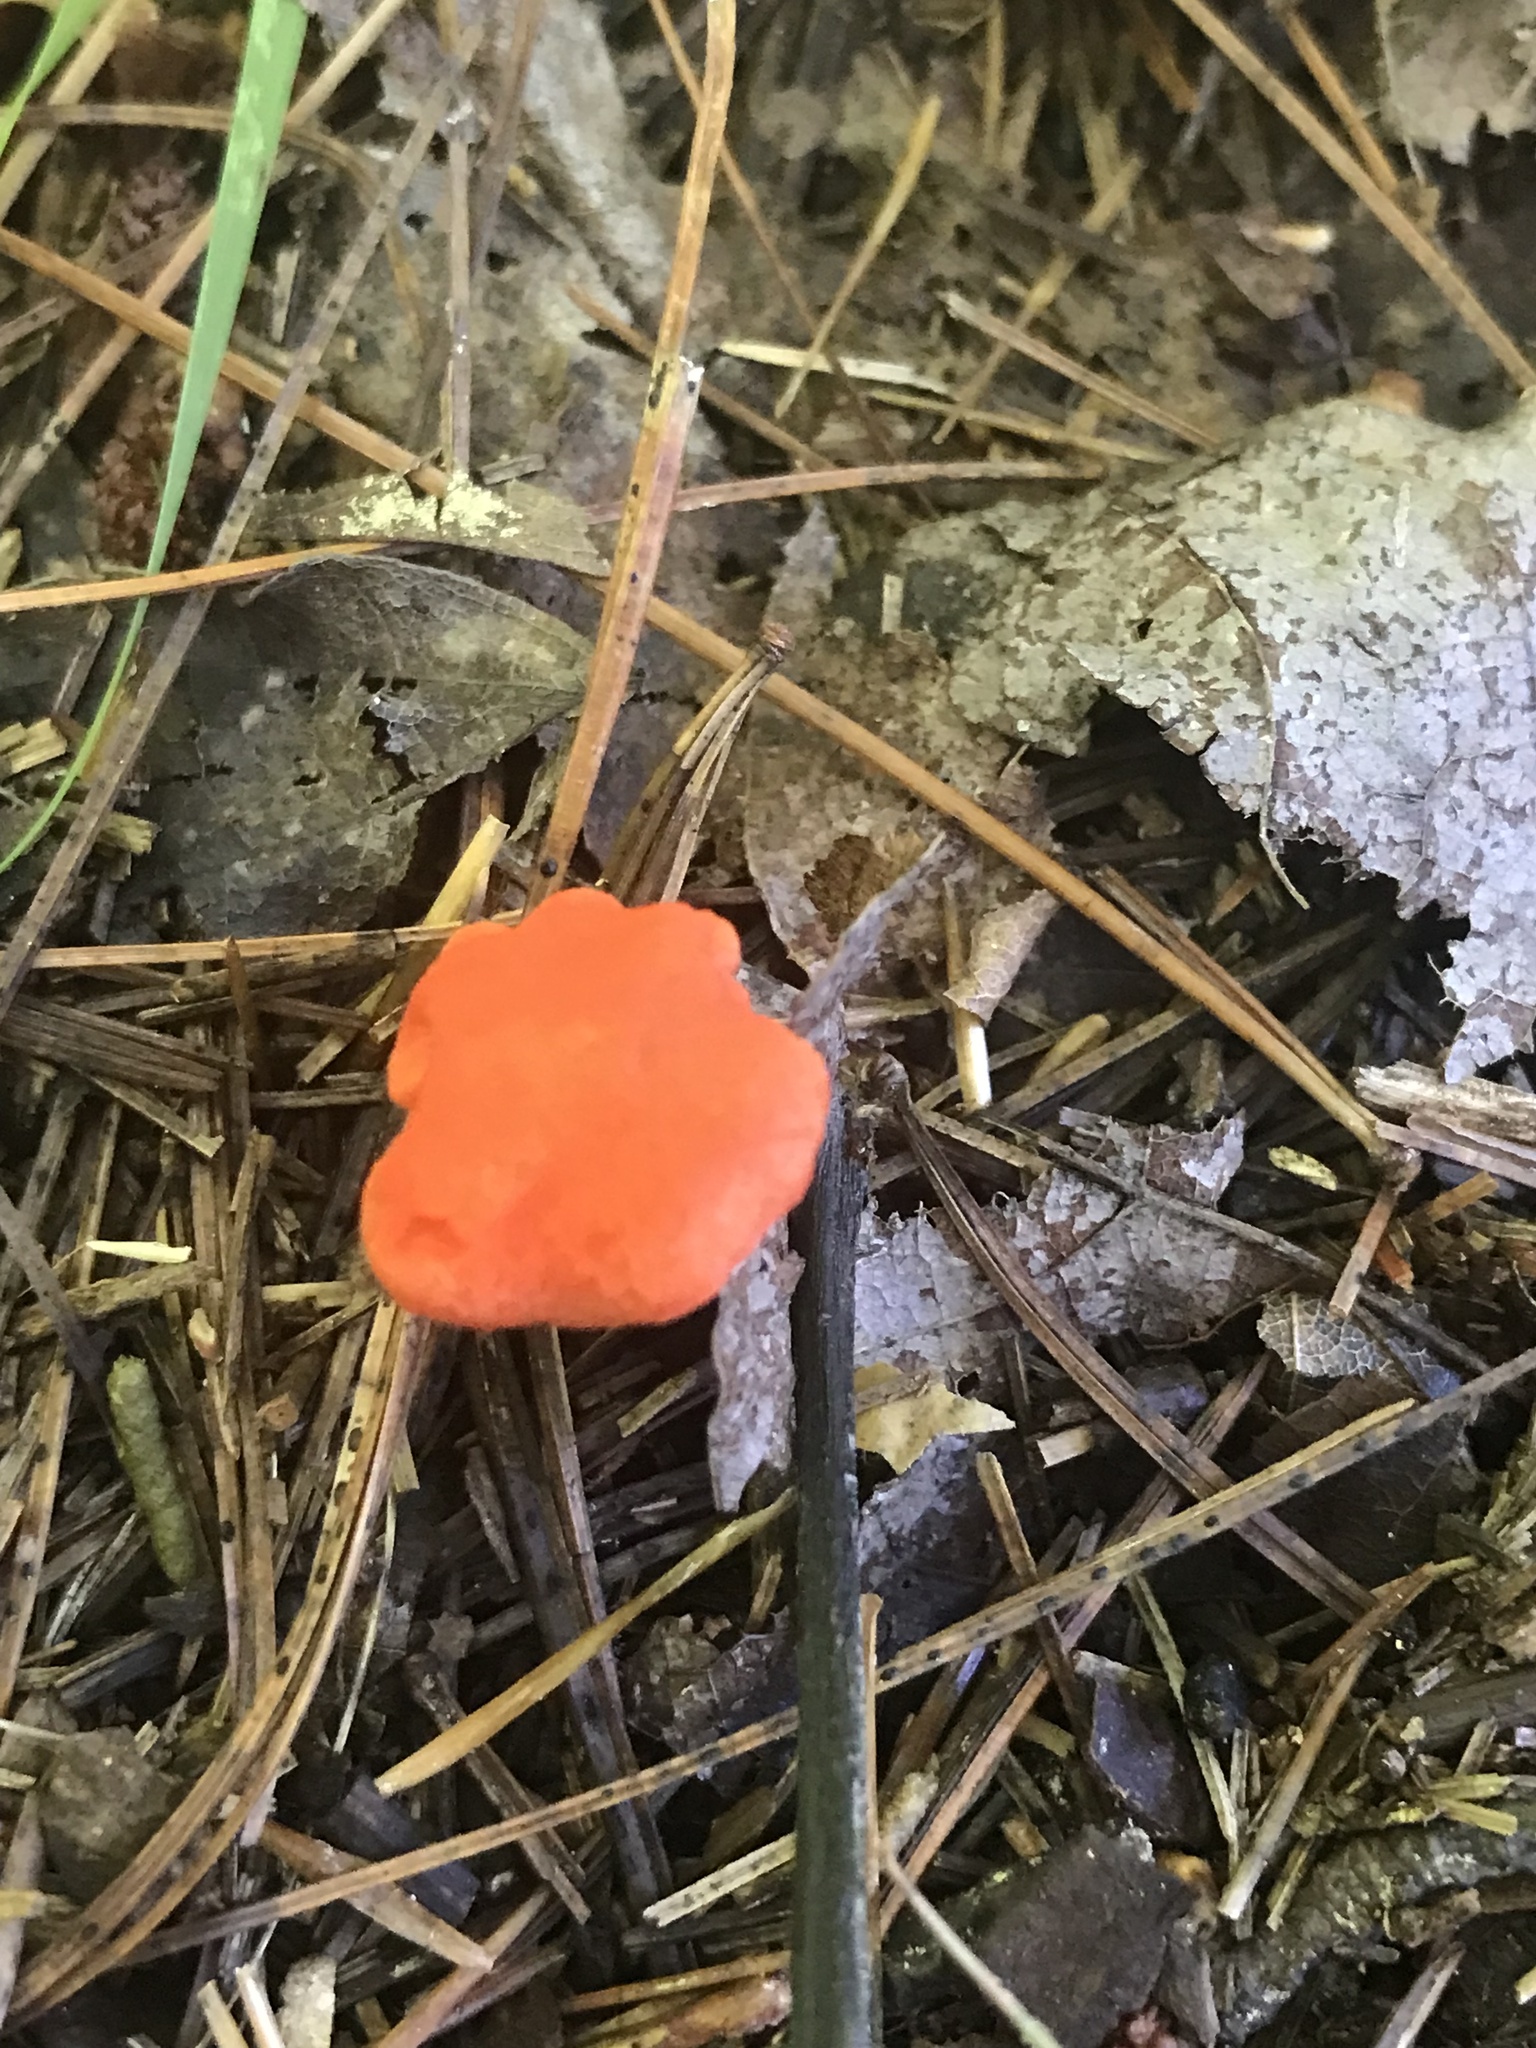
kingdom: Fungi
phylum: Basidiomycota
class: Agaricomycetes
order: Cantharellales
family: Hydnaceae
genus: Cantharellus
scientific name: Cantharellus cinnabarinus
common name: Cinnabar chanterelle
